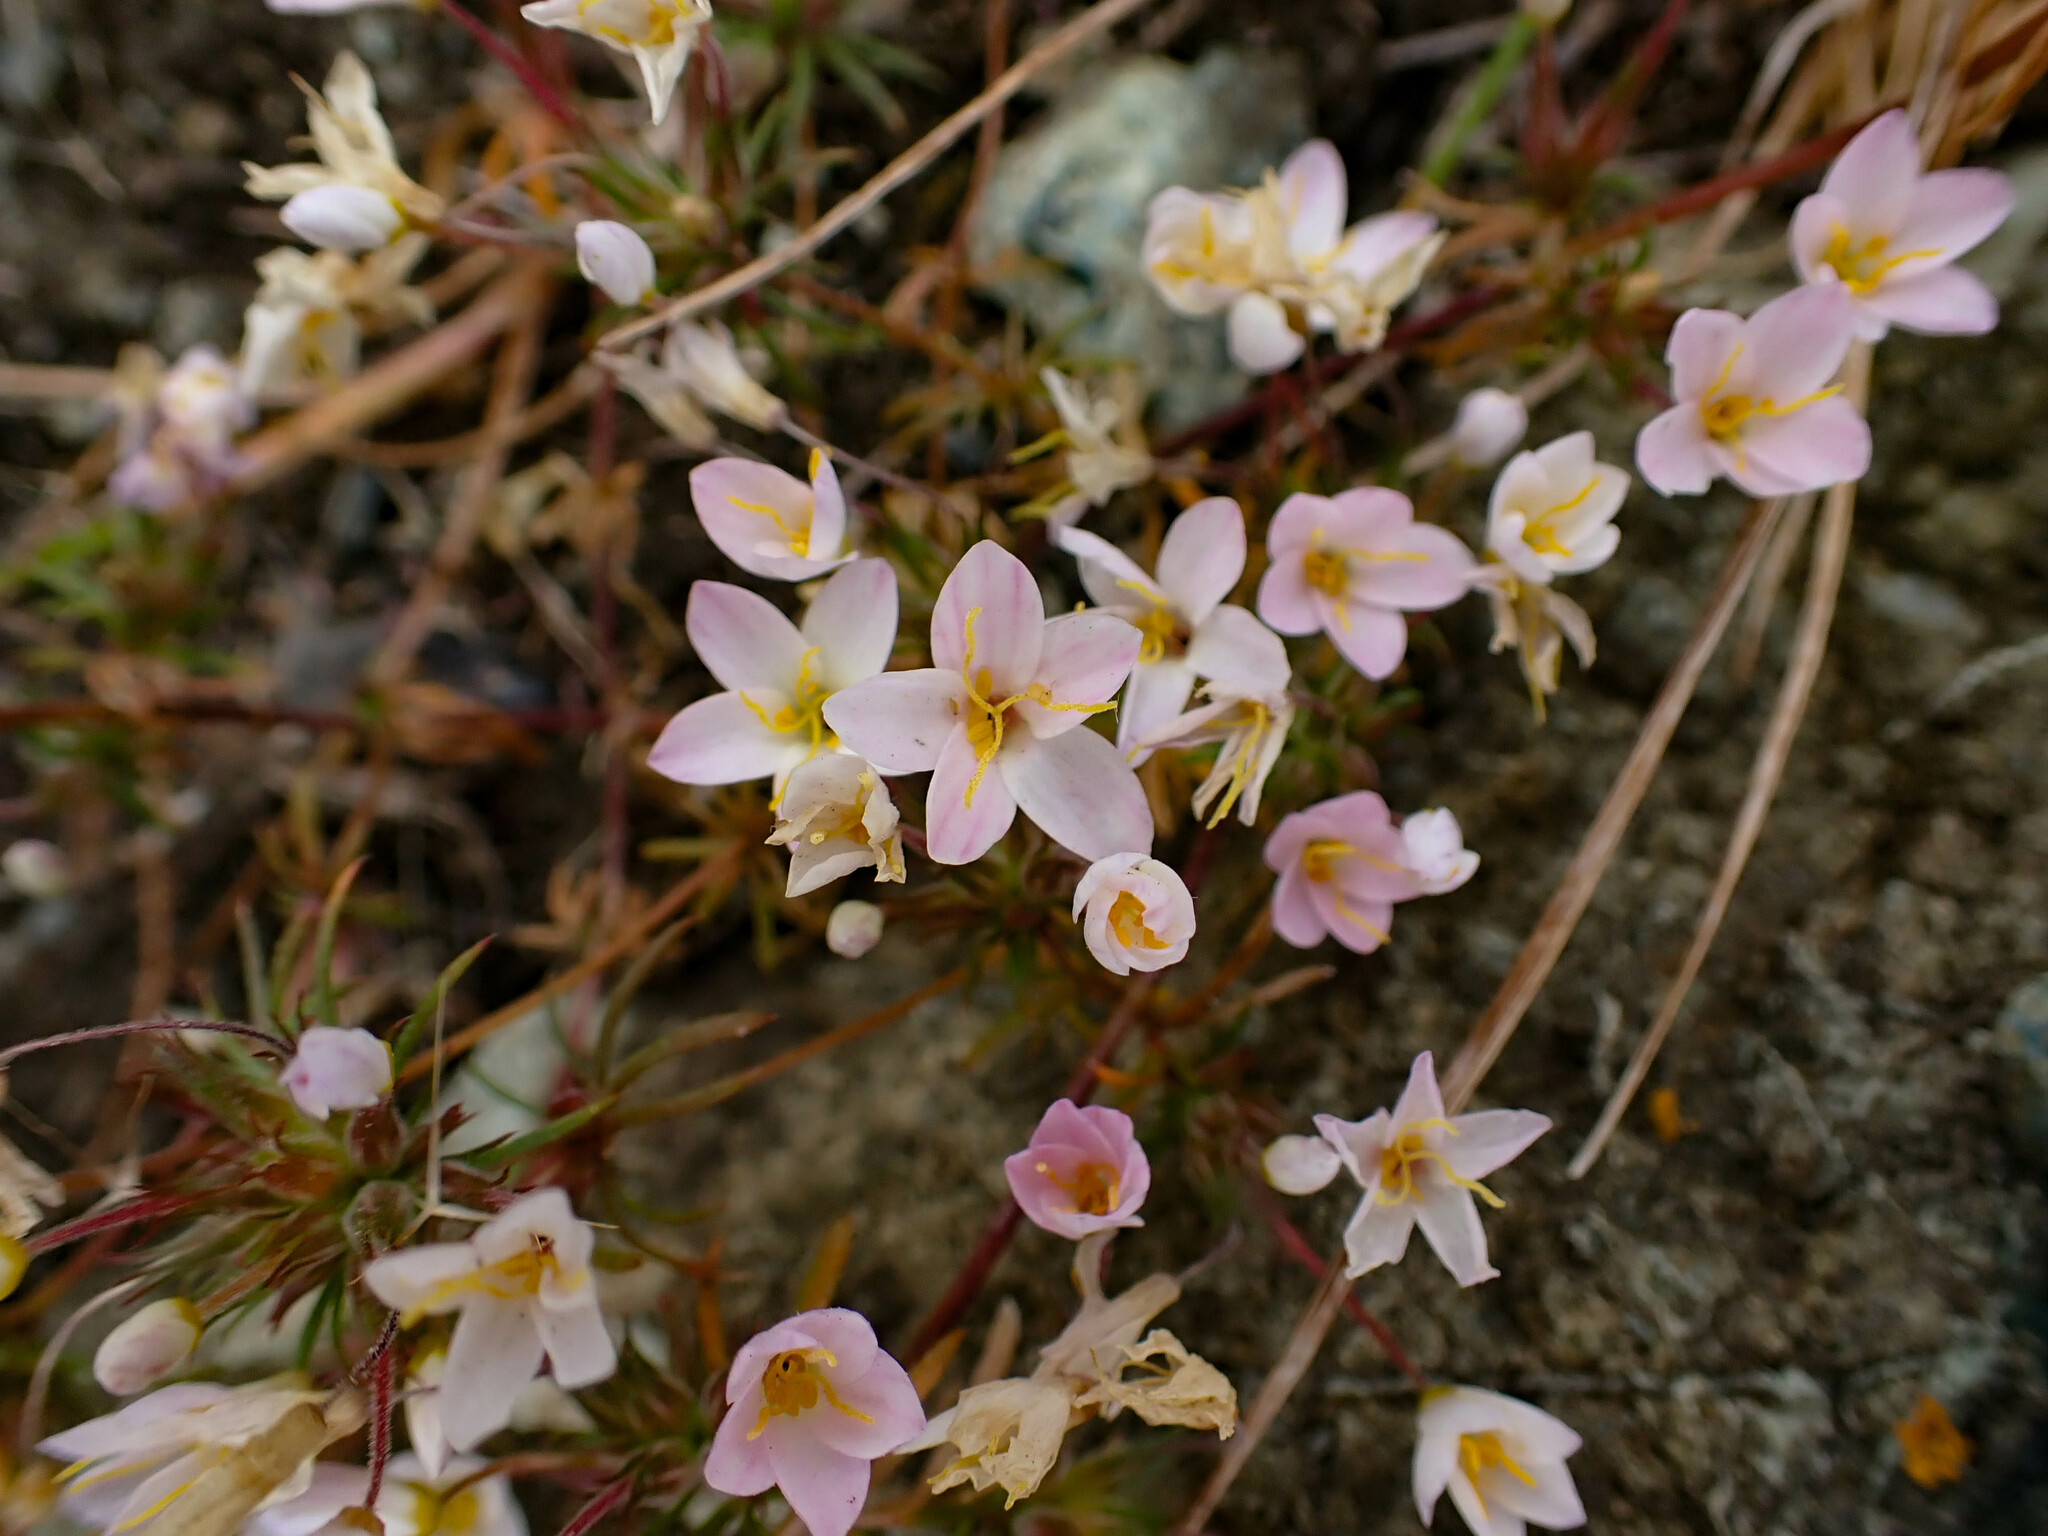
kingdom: Plantae
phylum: Tracheophyta
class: Magnoliopsida
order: Ericales
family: Polemoniaceae
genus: Leptosiphon
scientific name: Leptosiphon parviflorus
